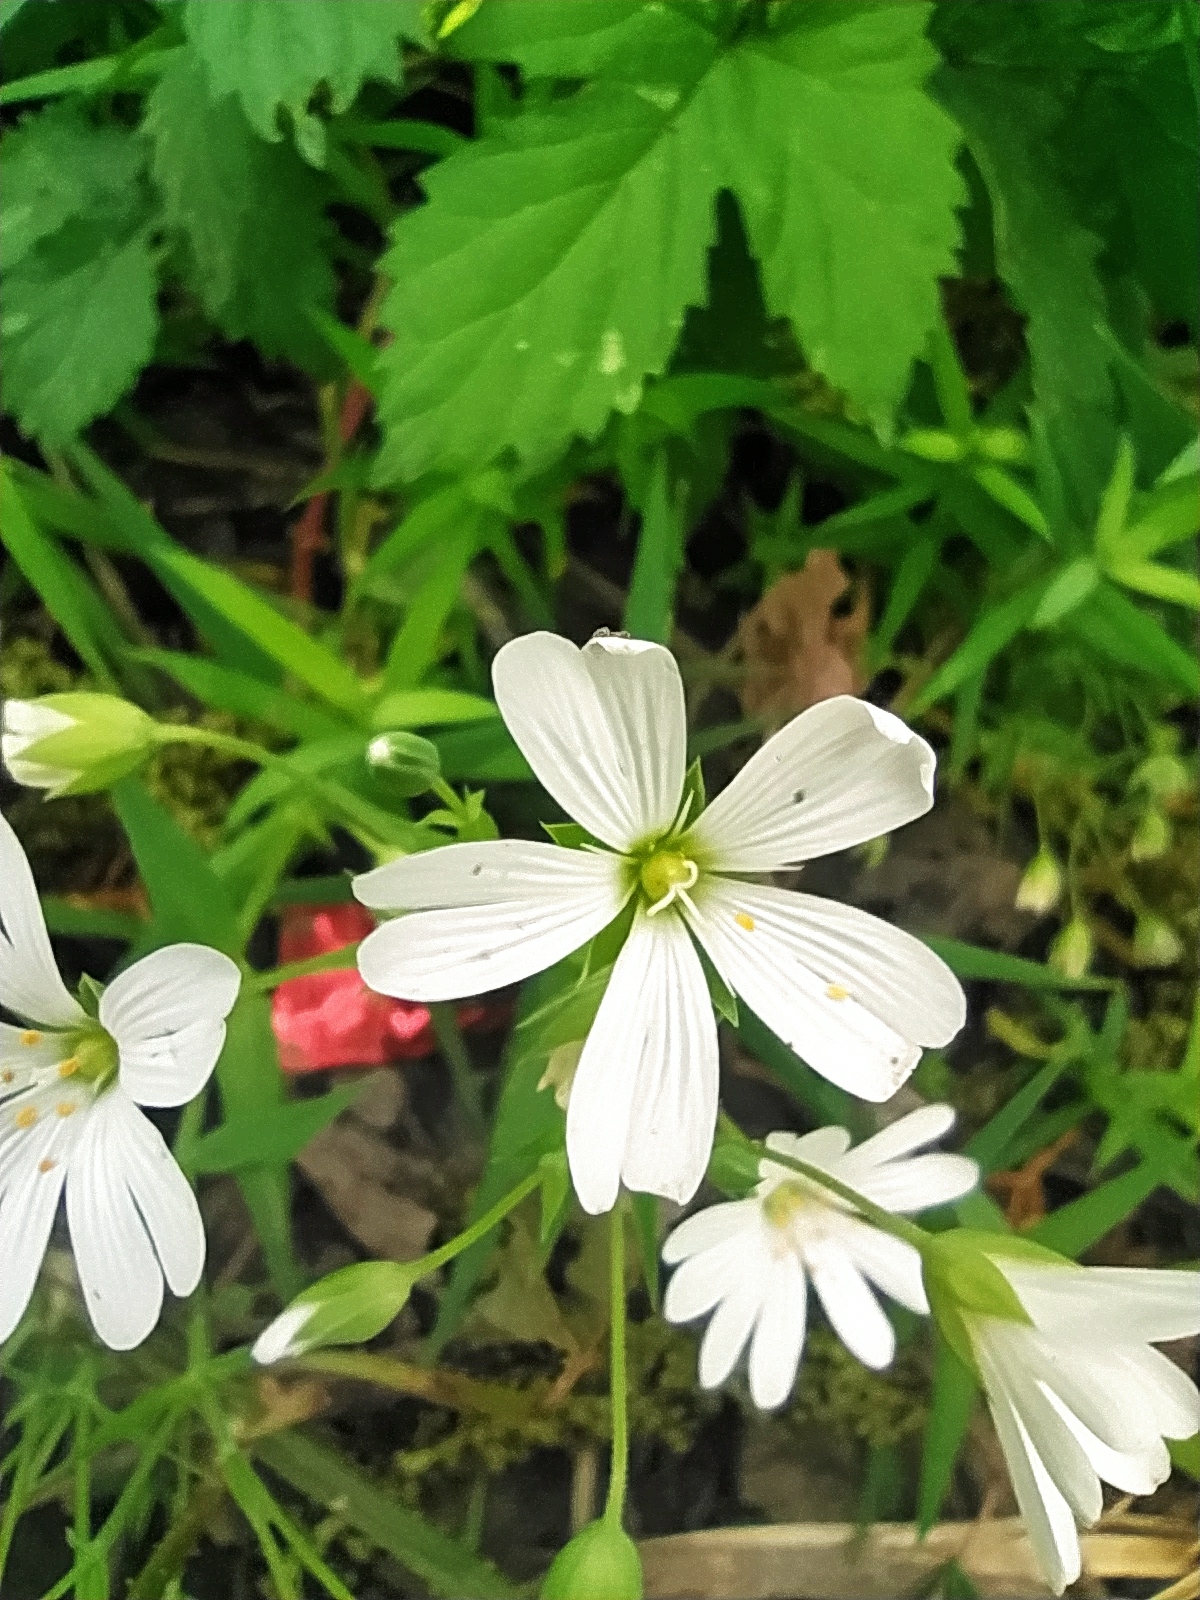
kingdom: Plantae
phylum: Tracheophyta
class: Magnoliopsida
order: Caryophyllales
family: Caryophyllaceae
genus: Rabelera
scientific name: Rabelera holostea
